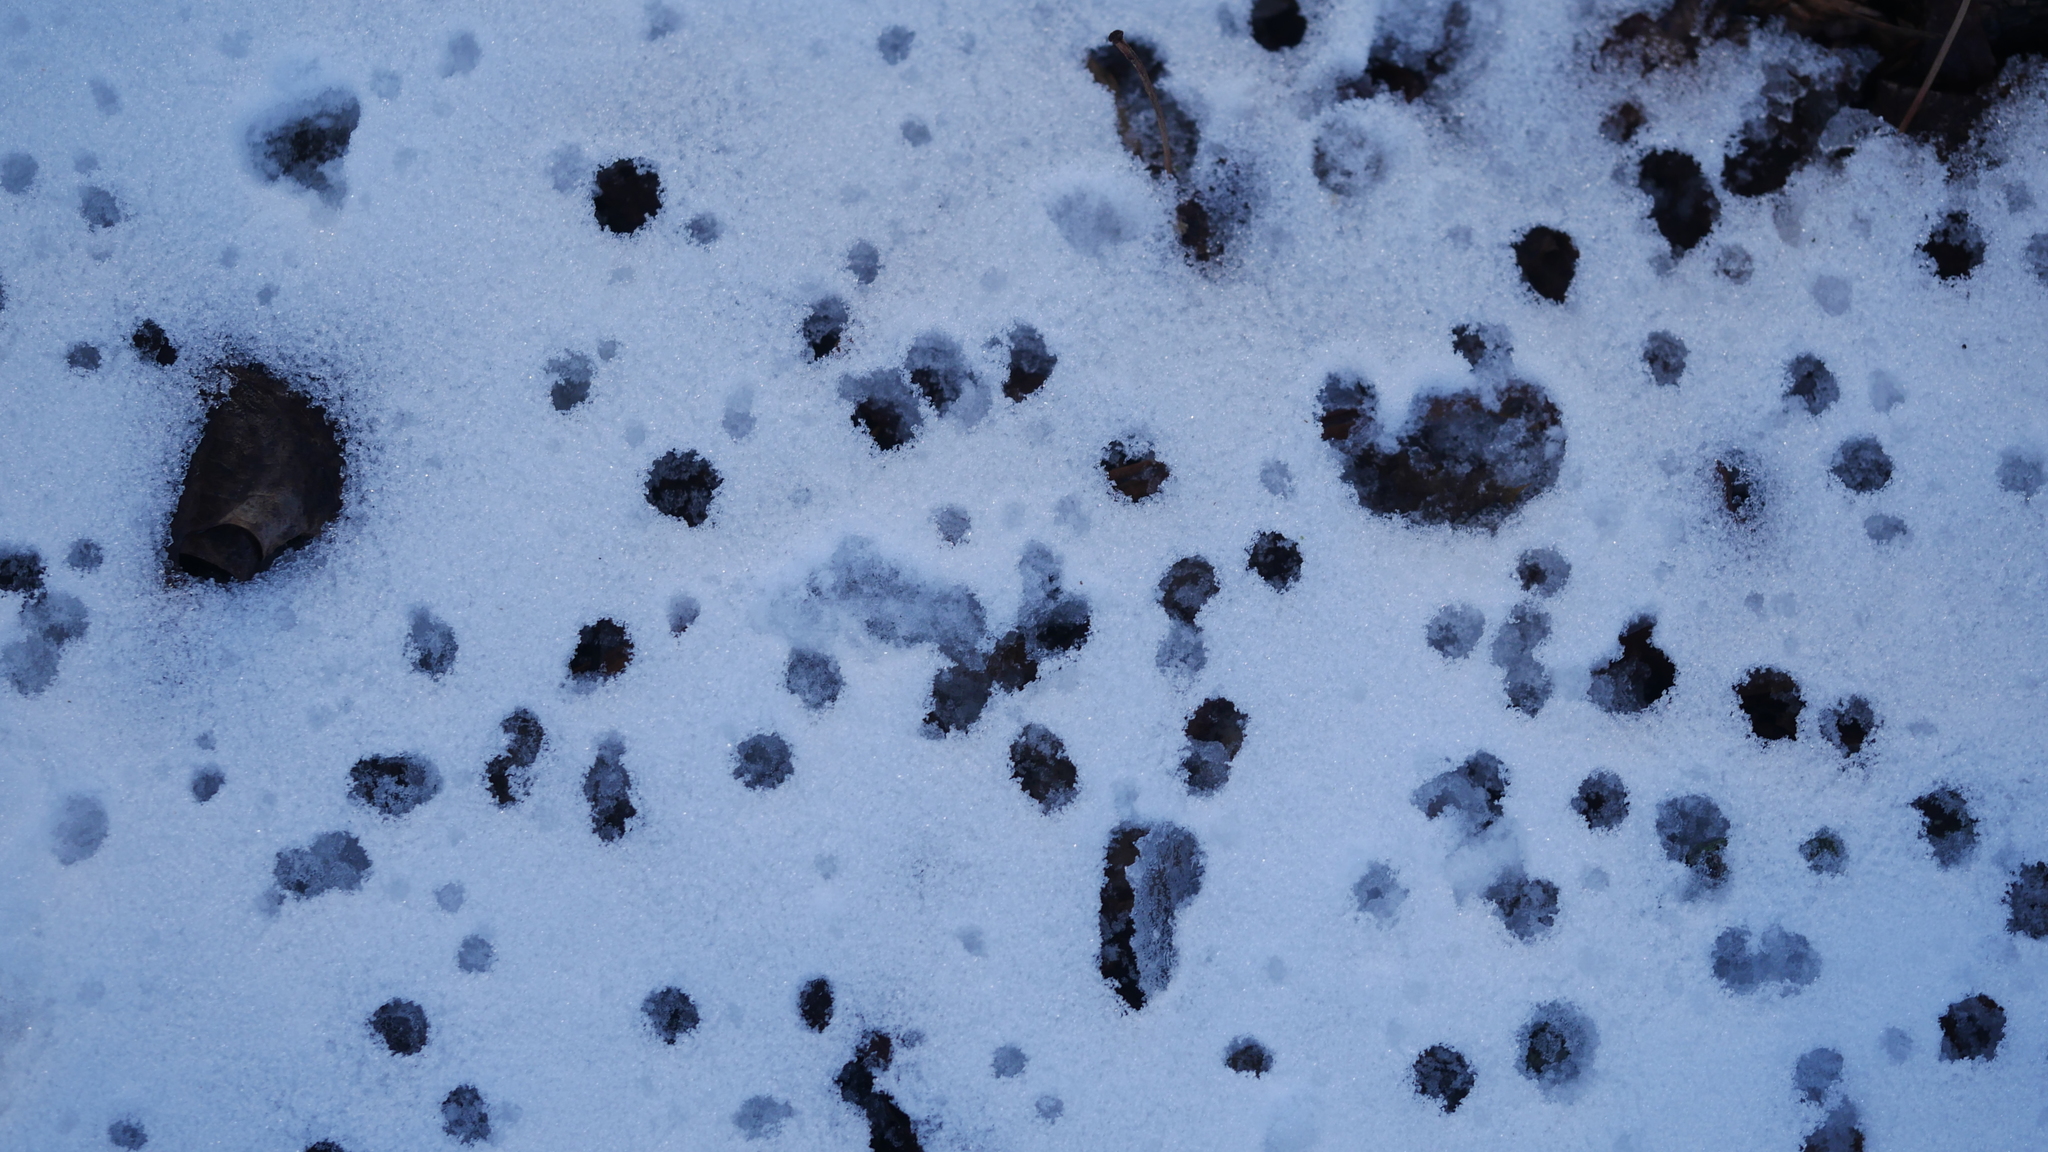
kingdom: Plantae
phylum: Tracheophyta
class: Magnoliopsida
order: Aquifoliales
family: Aquifoliaceae
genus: Ilex
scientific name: Ilex opaca
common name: American holly
